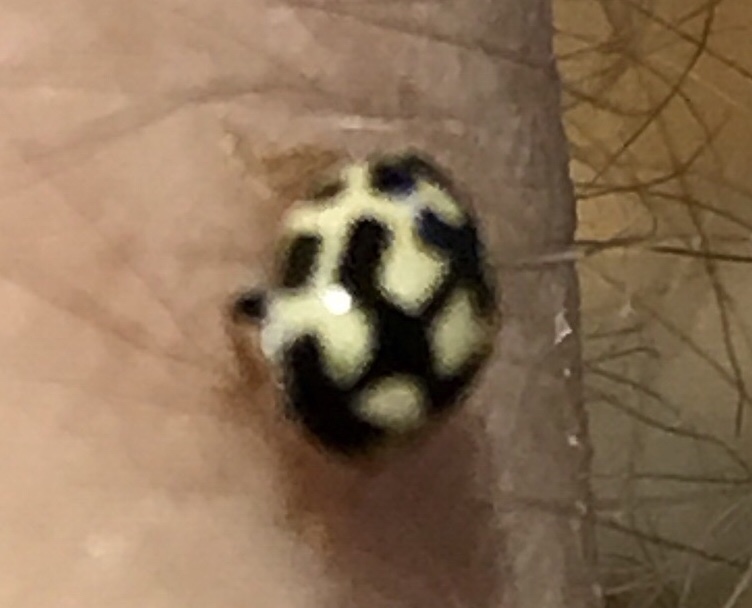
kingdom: Animalia
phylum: Arthropoda
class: Insecta
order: Coleoptera
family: Coccinellidae
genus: Propylaea
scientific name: Propylaea quatuordecimpunctata
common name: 14-spotted ladybird beetle
